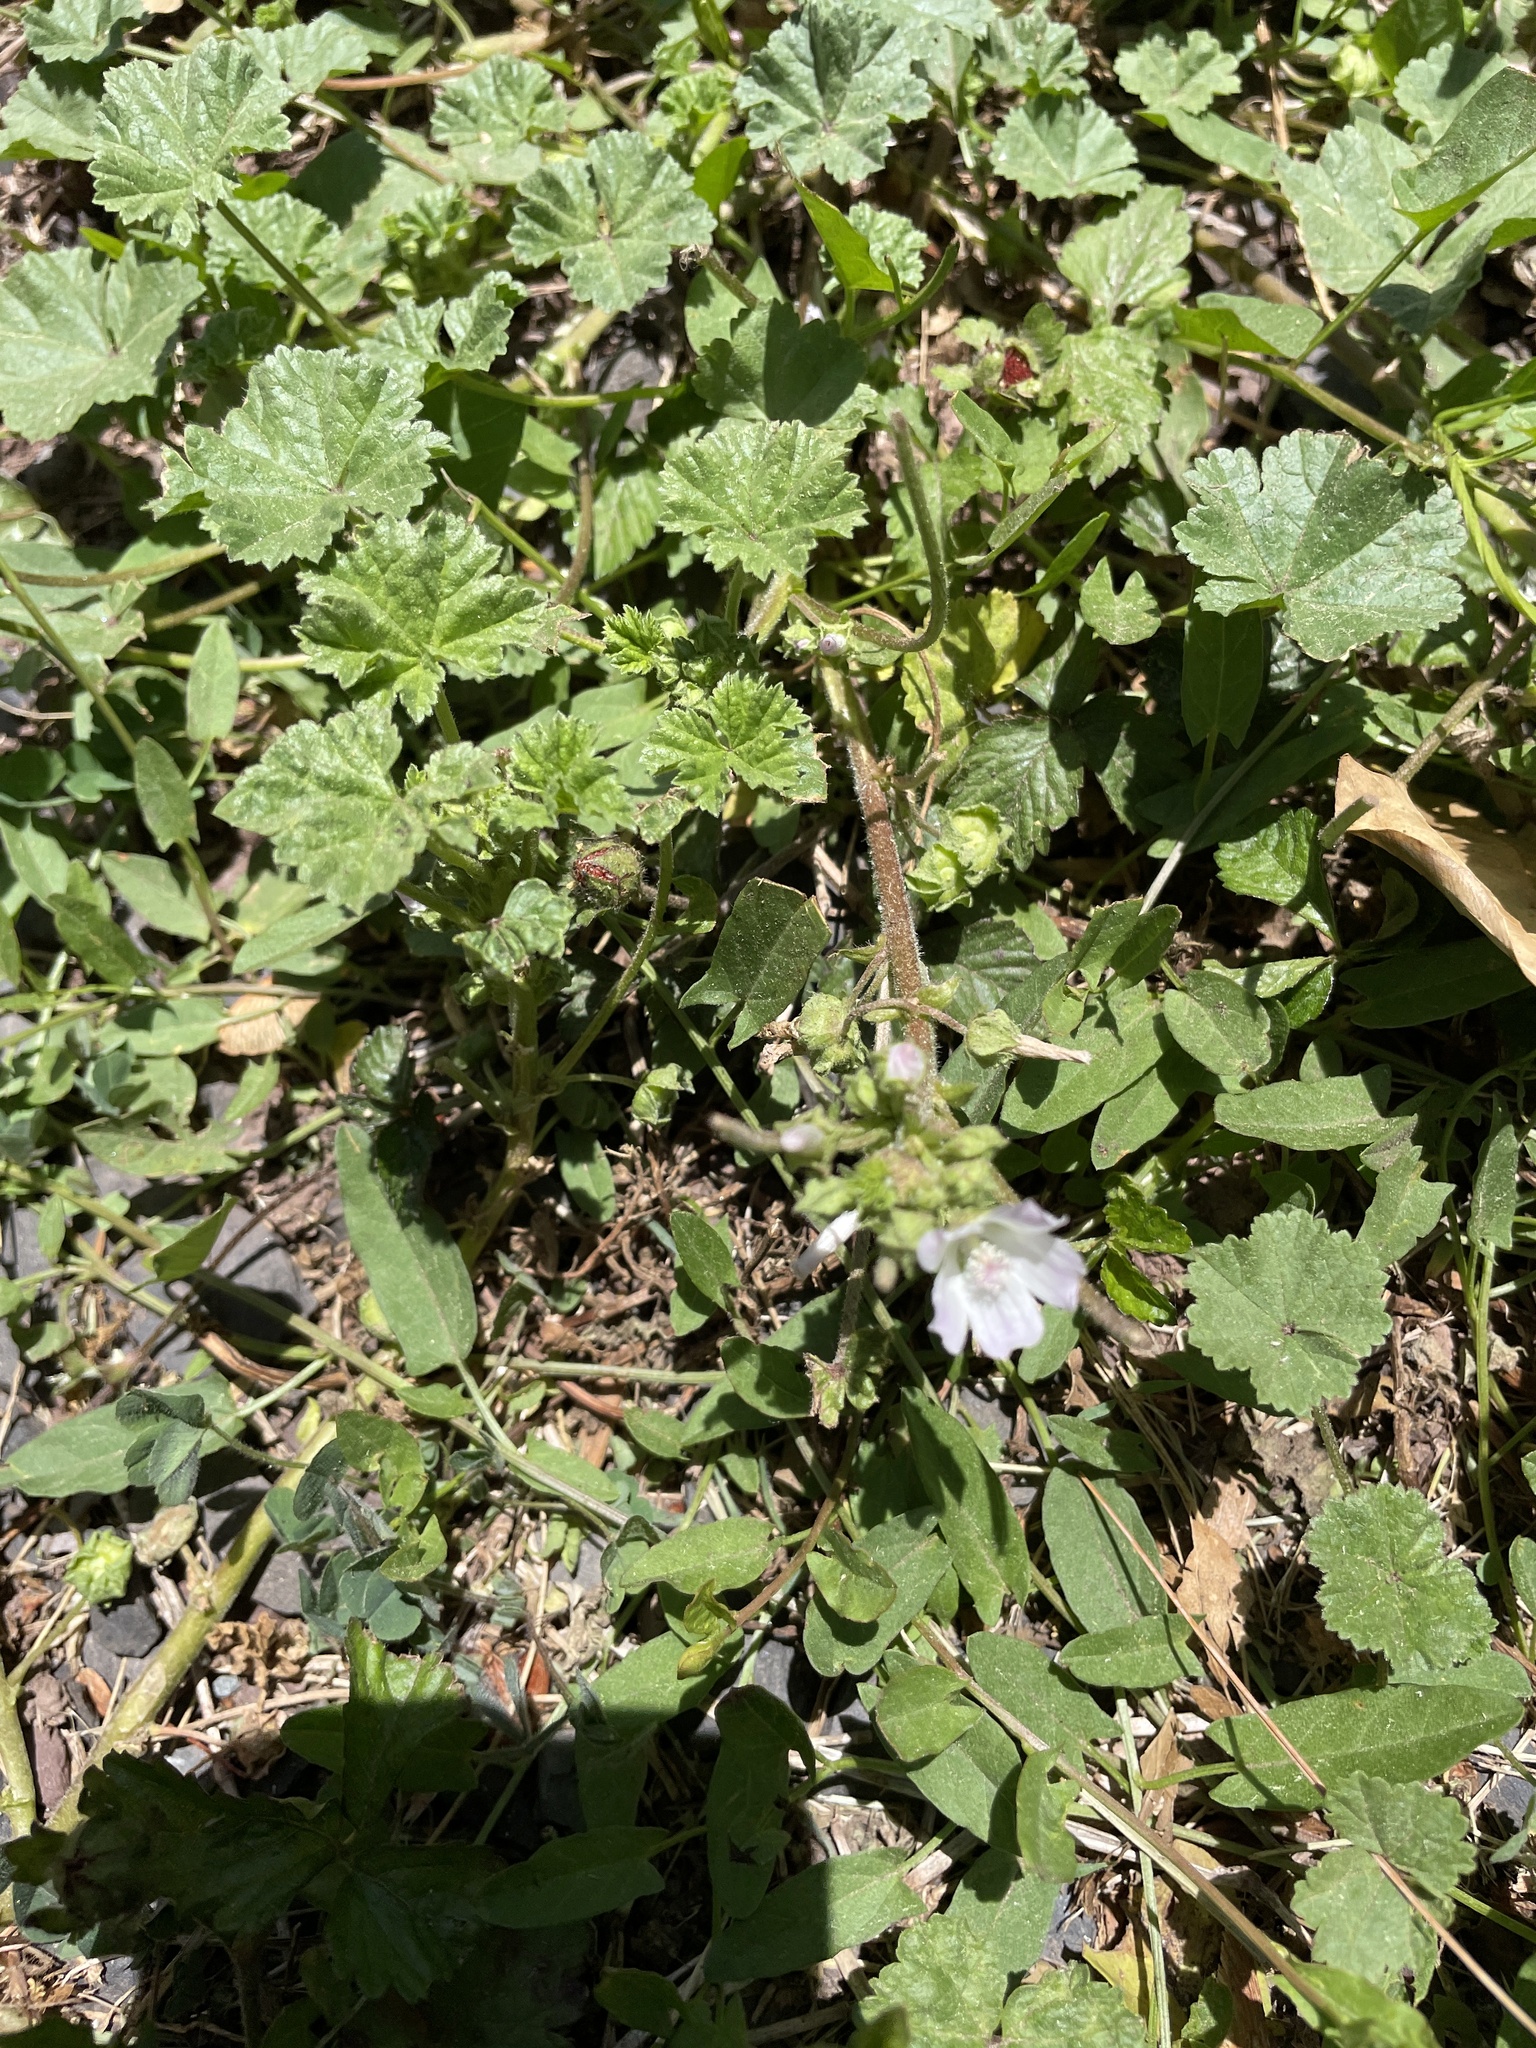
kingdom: Plantae
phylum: Tracheophyta
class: Magnoliopsida
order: Malvales
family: Malvaceae
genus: Malva
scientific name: Malva neglecta
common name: Common mallow
